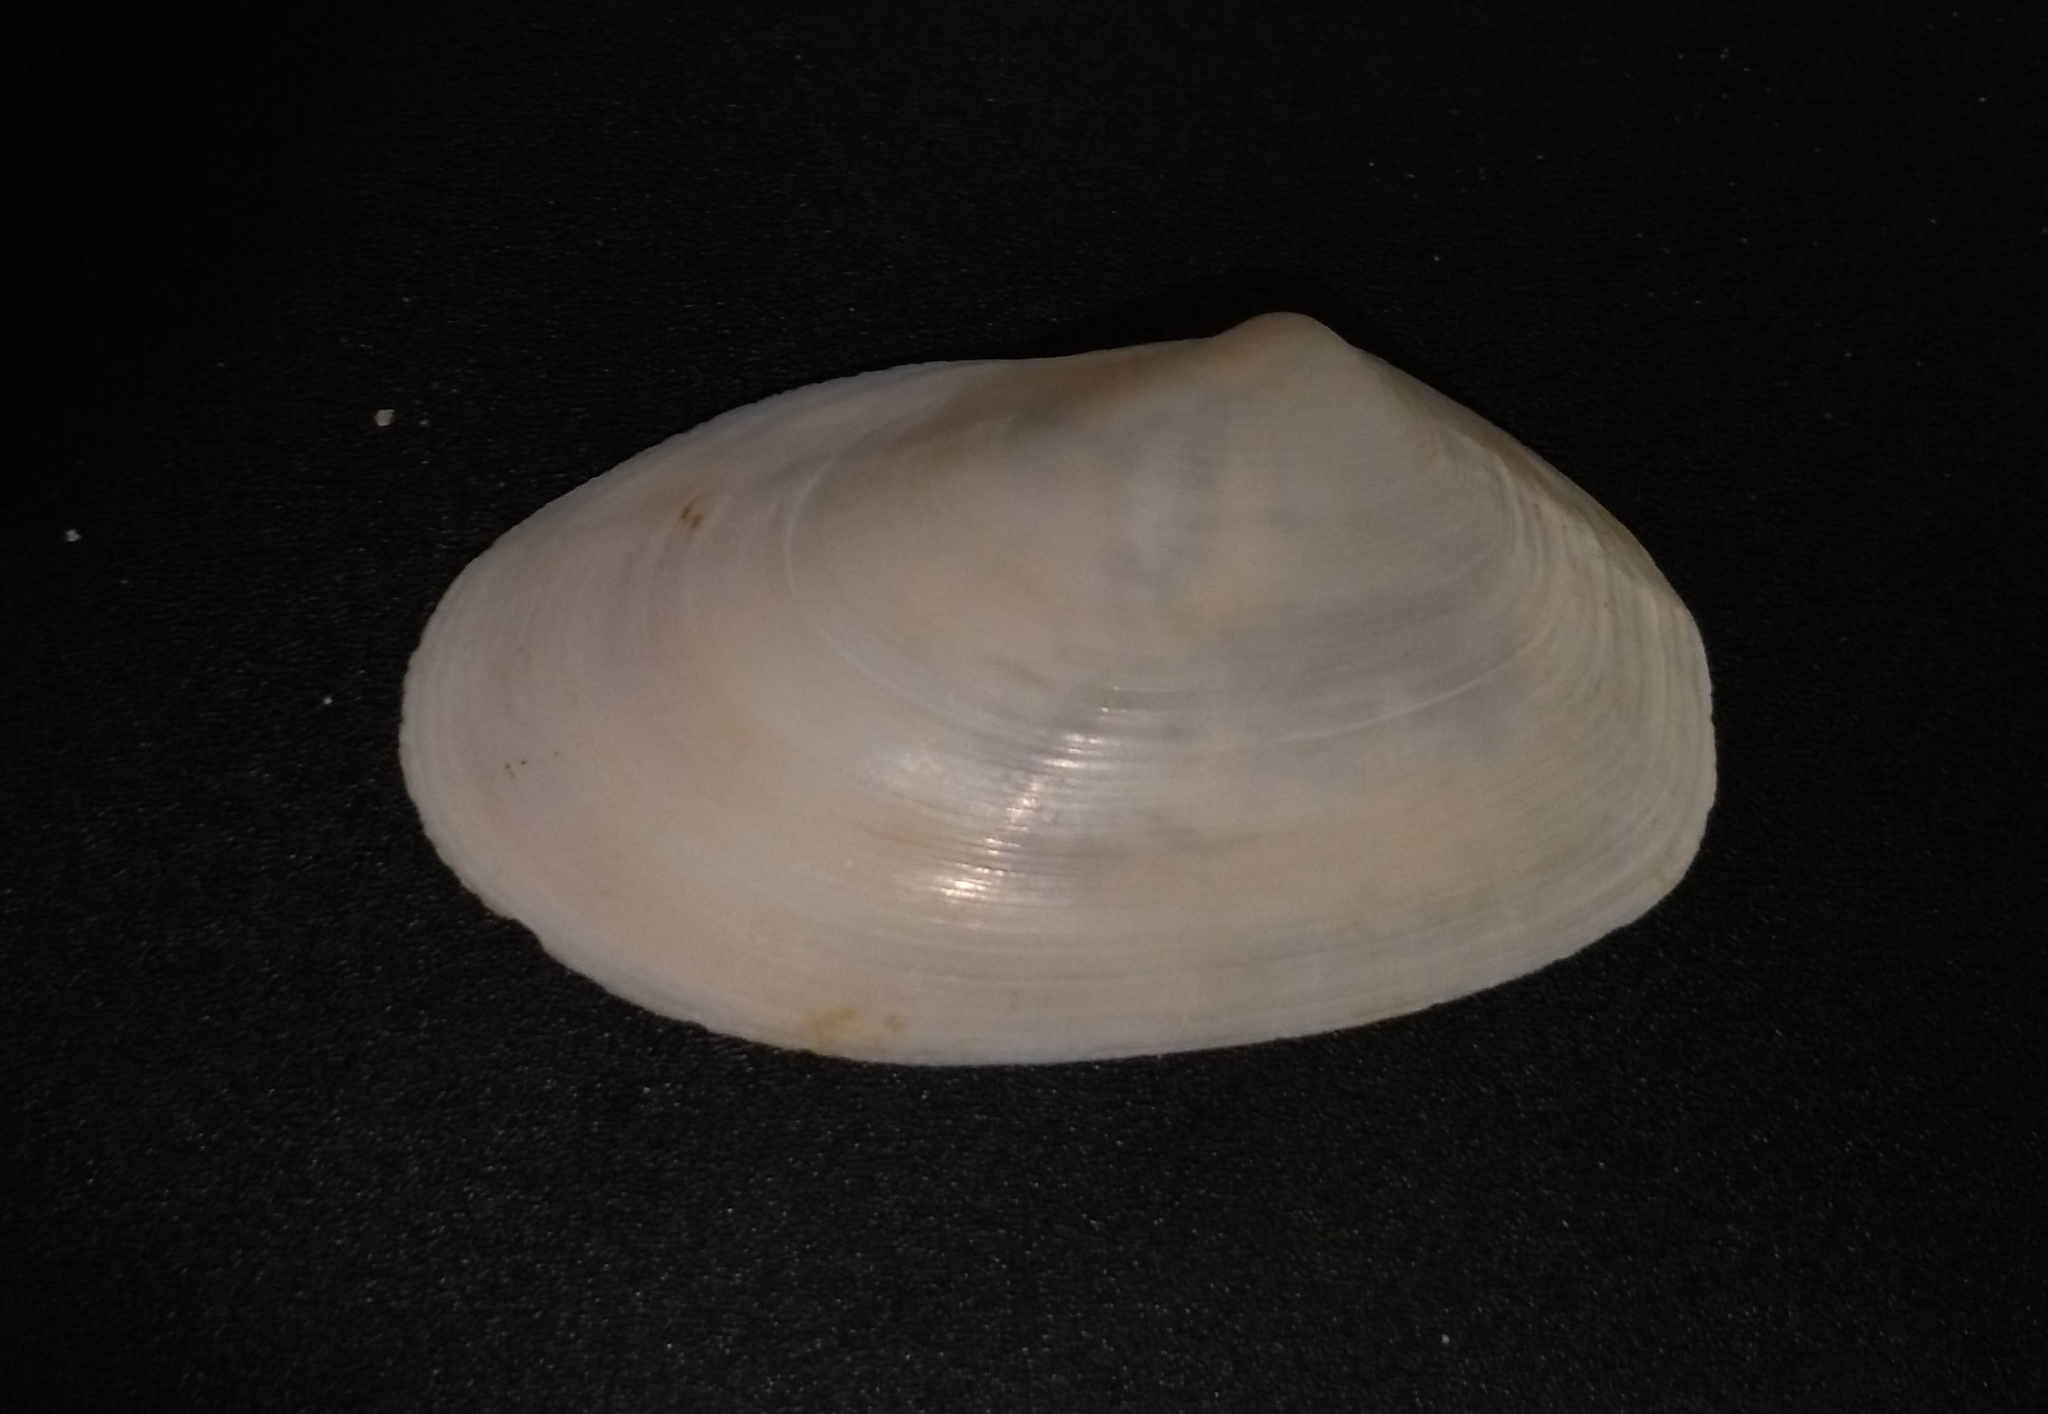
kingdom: Animalia
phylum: Mollusca
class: Bivalvia
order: Venerida
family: Mesodesmatidae
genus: Amarilladesma
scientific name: Amarilladesma mactroides
